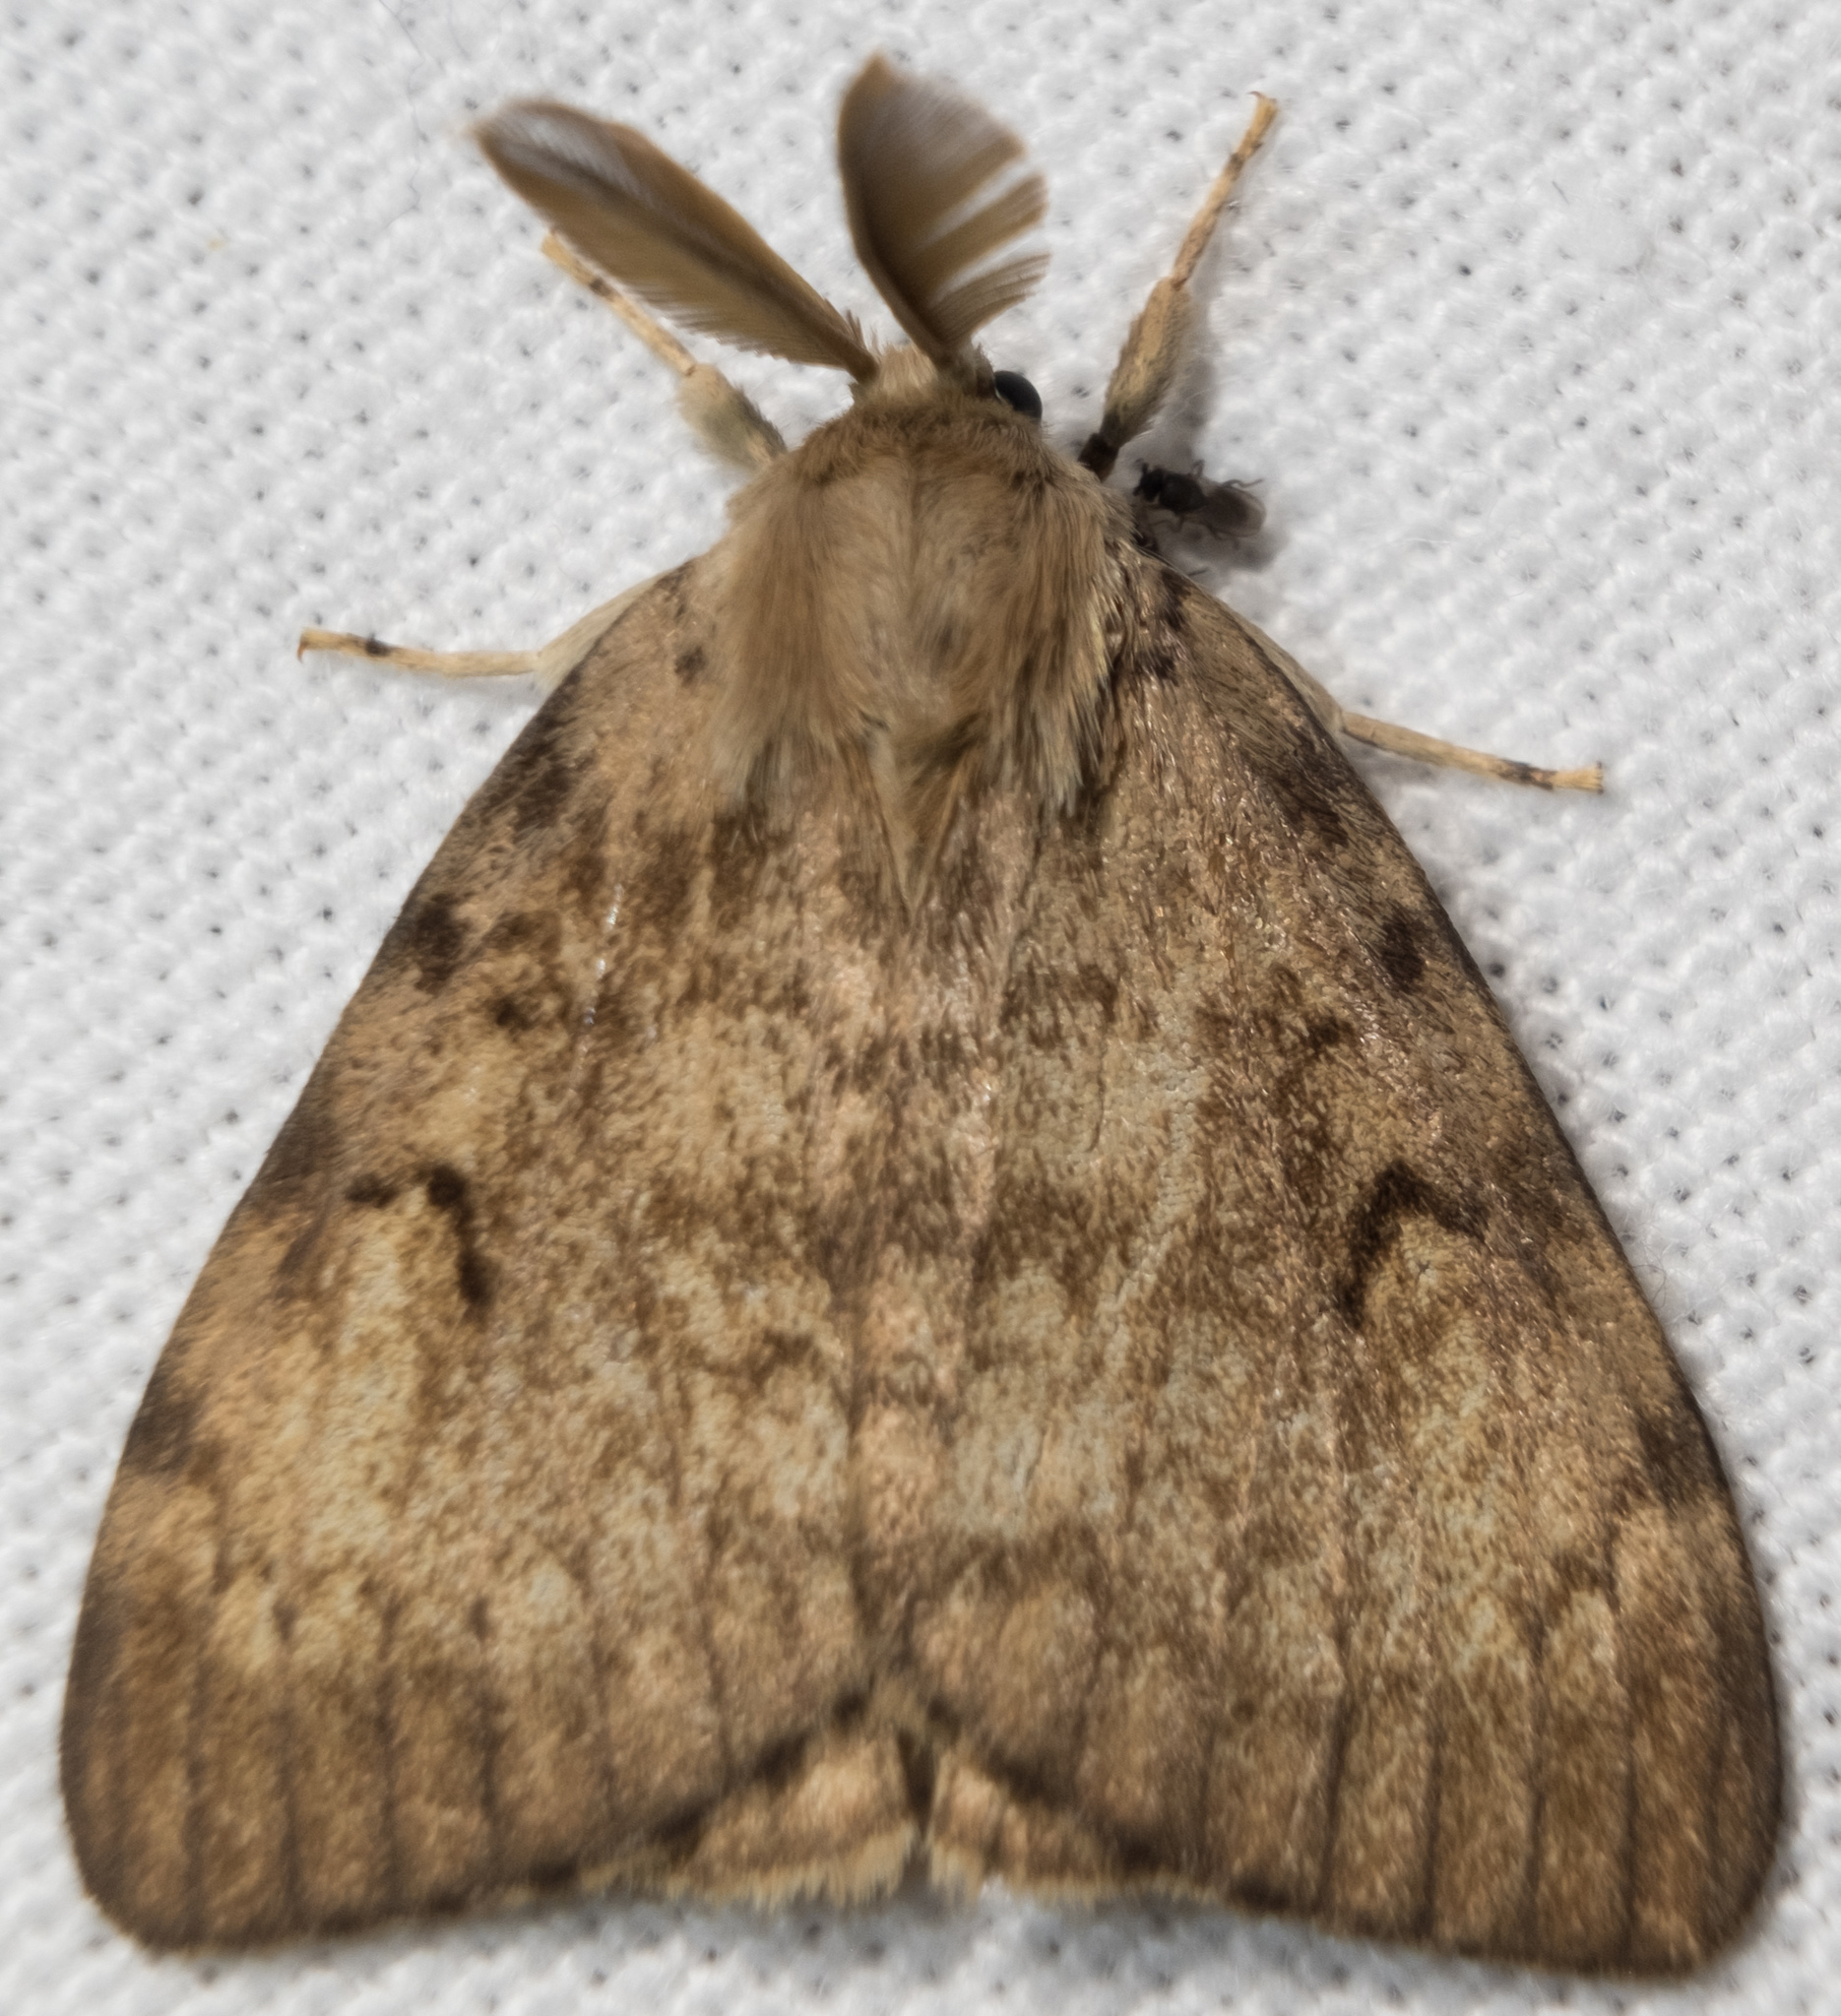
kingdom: Animalia
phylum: Arthropoda
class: Insecta
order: Lepidoptera
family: Erebidae
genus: Lymantria
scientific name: Lymantria dispar
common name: Gypsy moth
